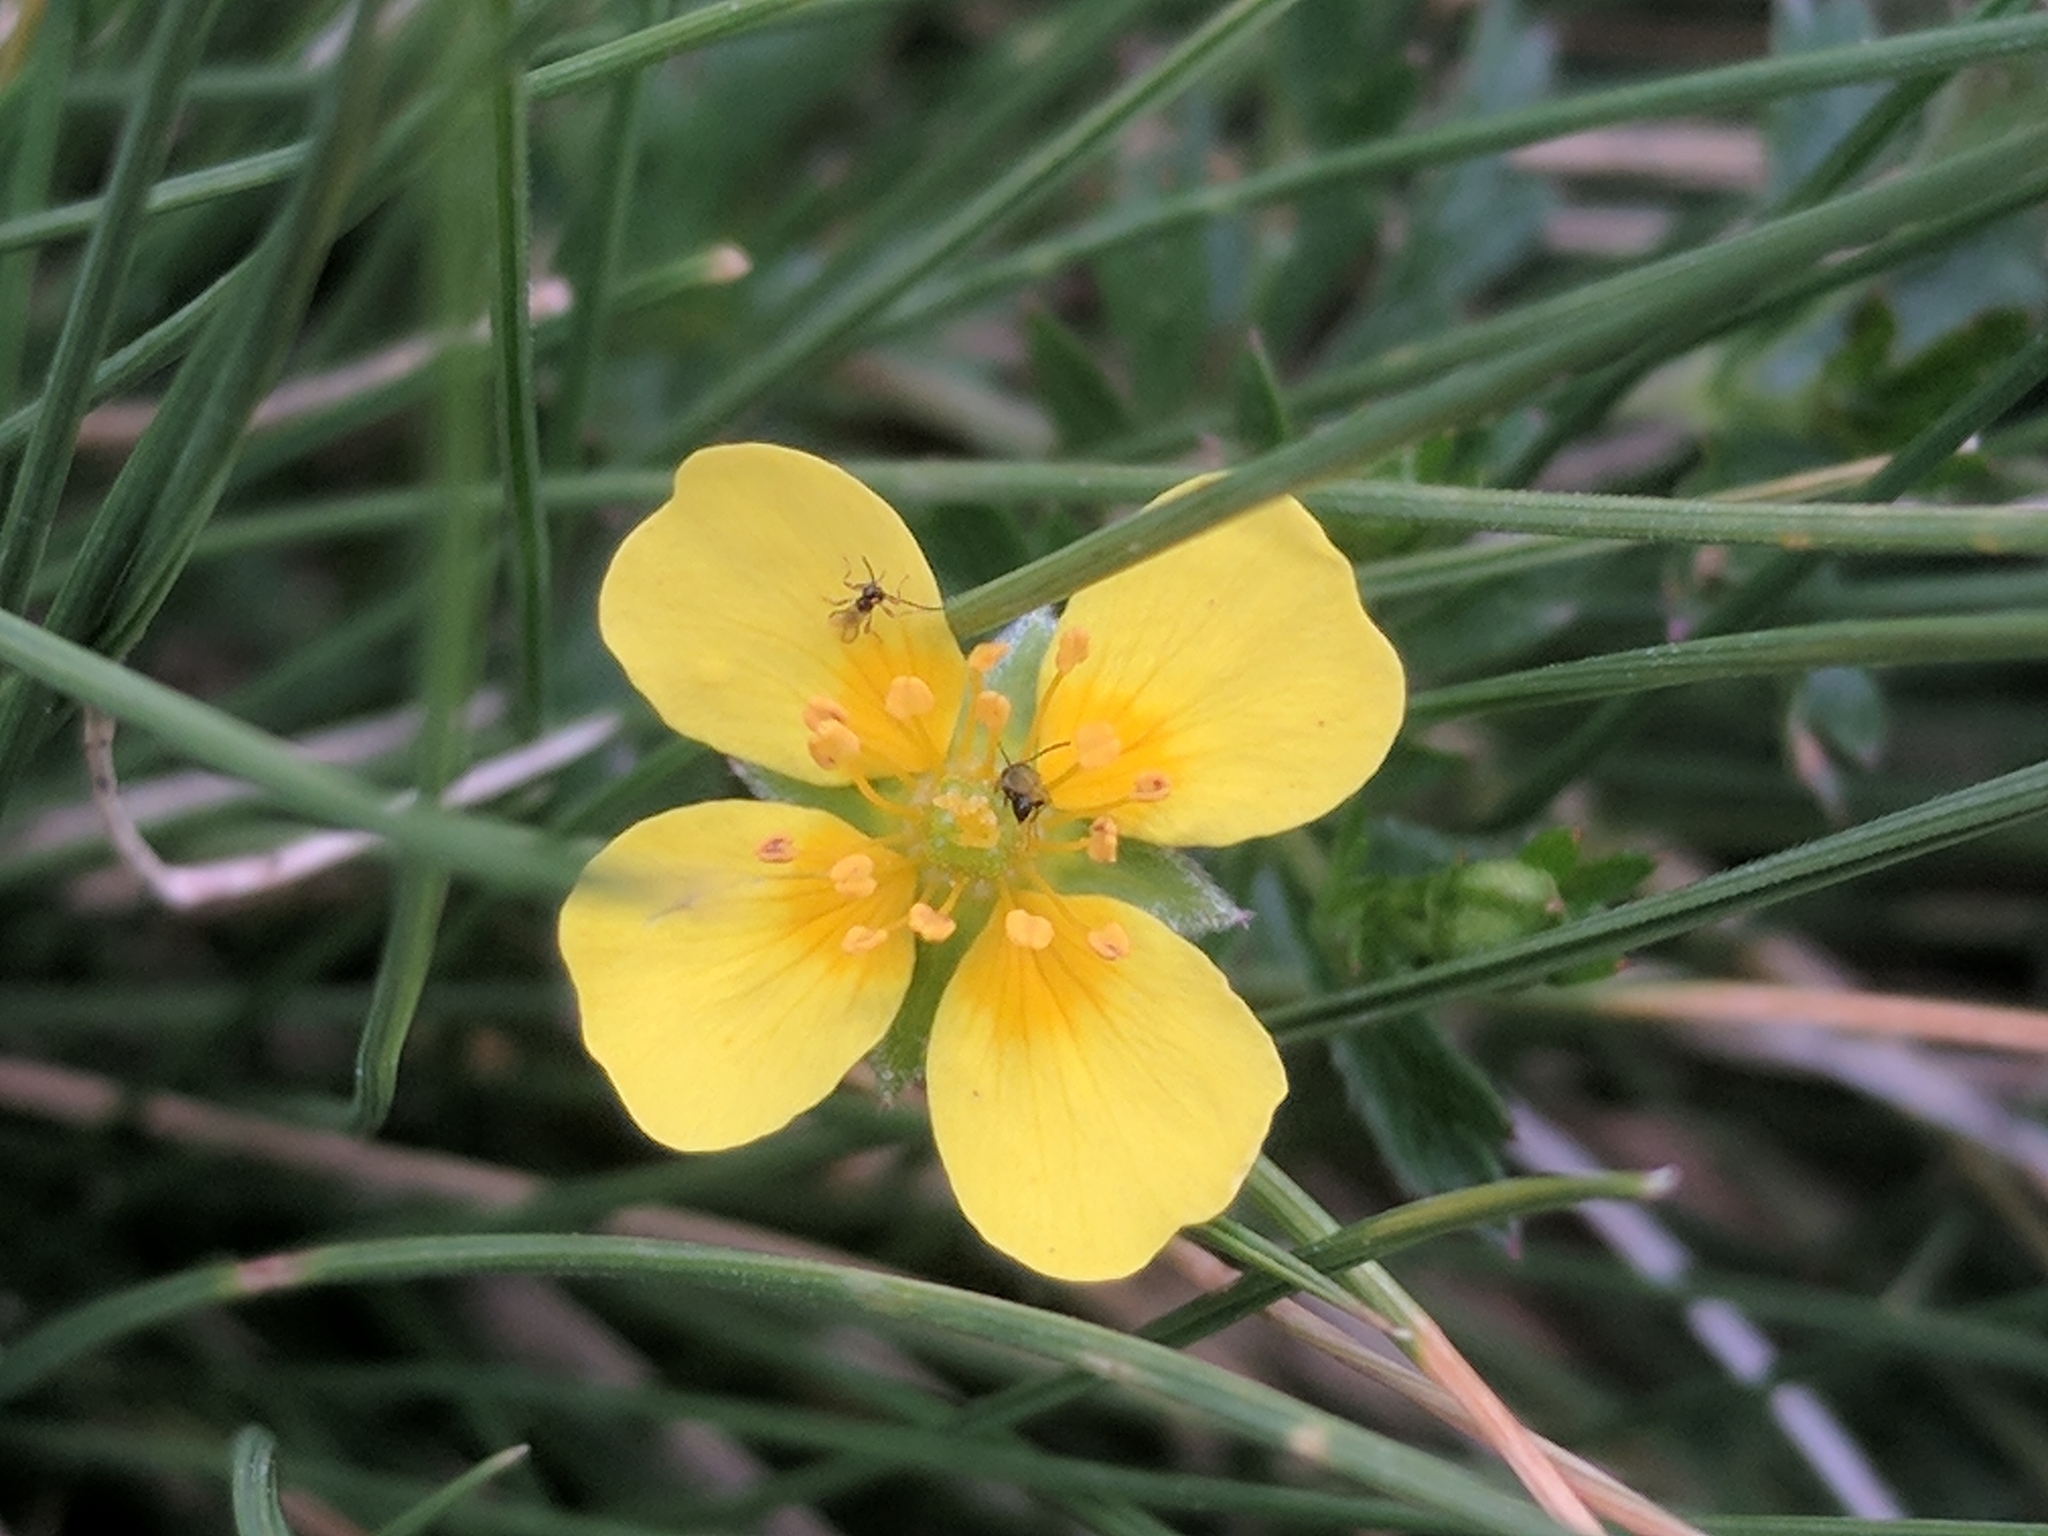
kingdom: Plantae
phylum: Tracheophyta
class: Magnoliopsida
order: Rosales
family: Rosaceae
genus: Potentilla
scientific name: Potentilla erecta
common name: Tormentil
